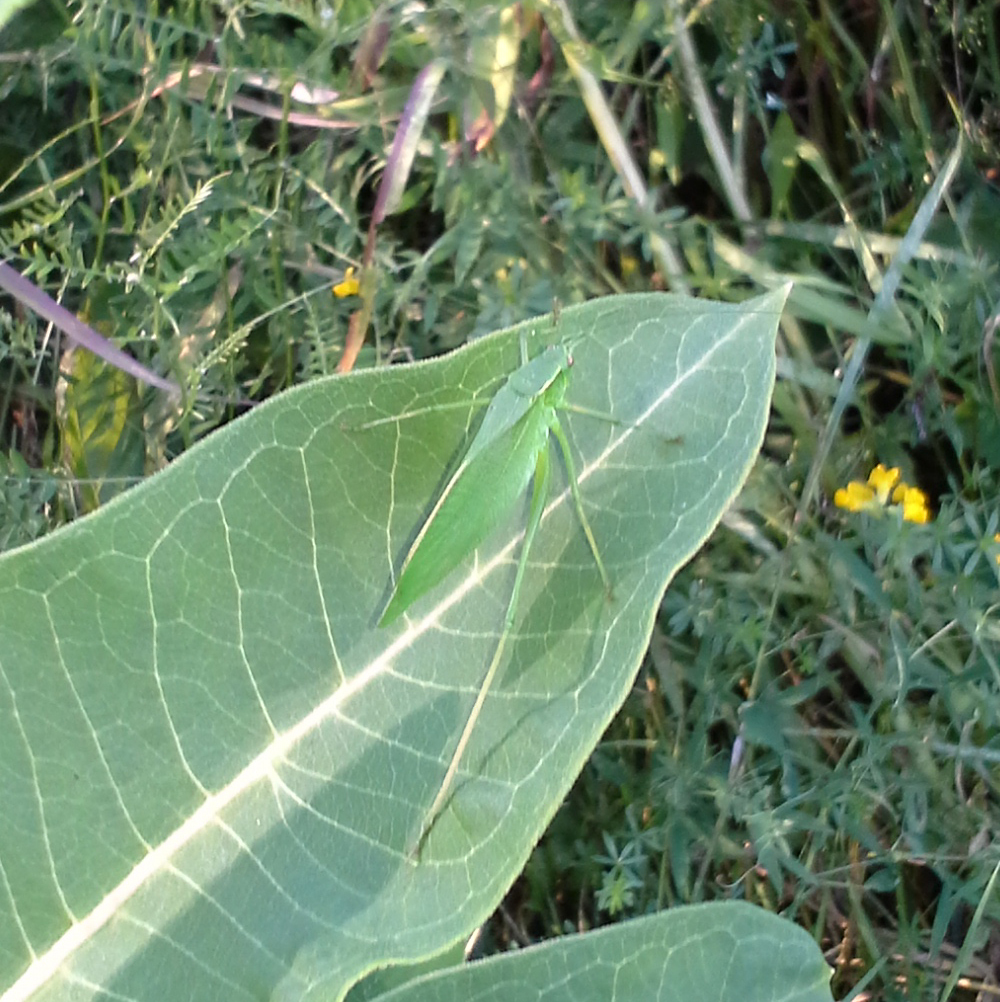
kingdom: Animalia
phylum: Arthropoda
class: Insecta
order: Orthoptera
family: Tettigoniidae
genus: Scudderia
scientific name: Scudderia pistillata
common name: Broad-winged bush-katydid
